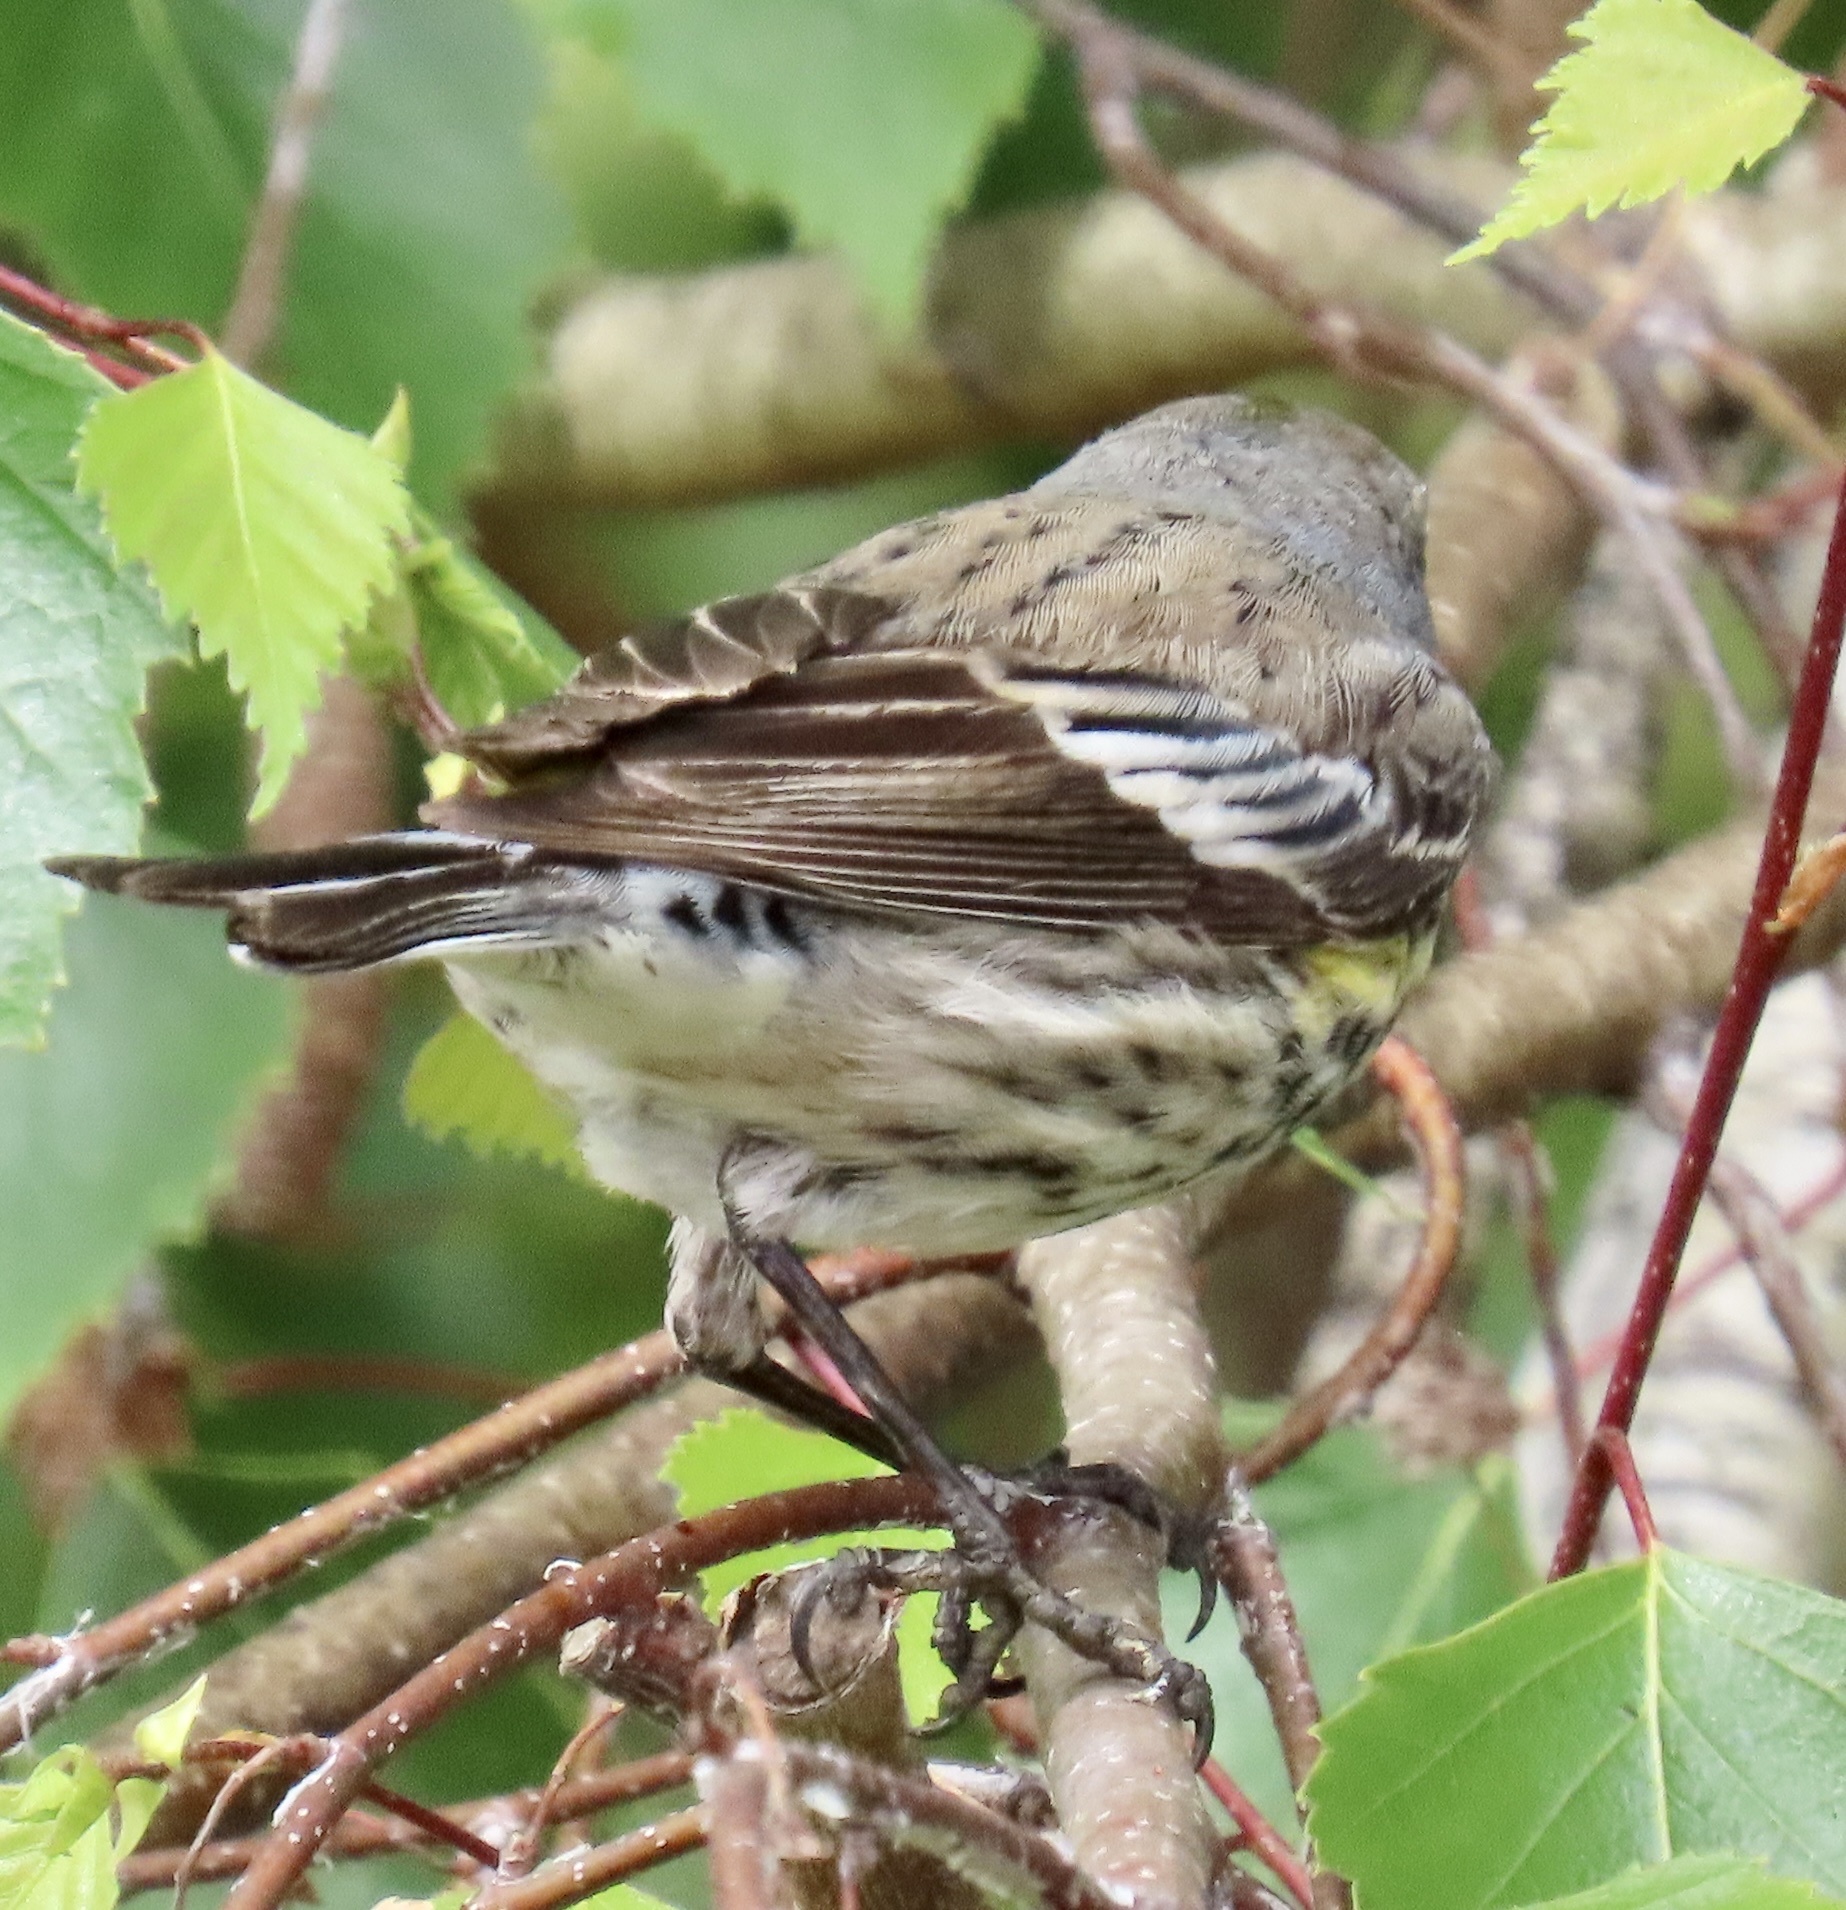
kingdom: Animalia
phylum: Chordata
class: Aves
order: Passeriformes
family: Parulidae
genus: Setophaga
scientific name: Setophaga coronata
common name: Myrtle warbler
